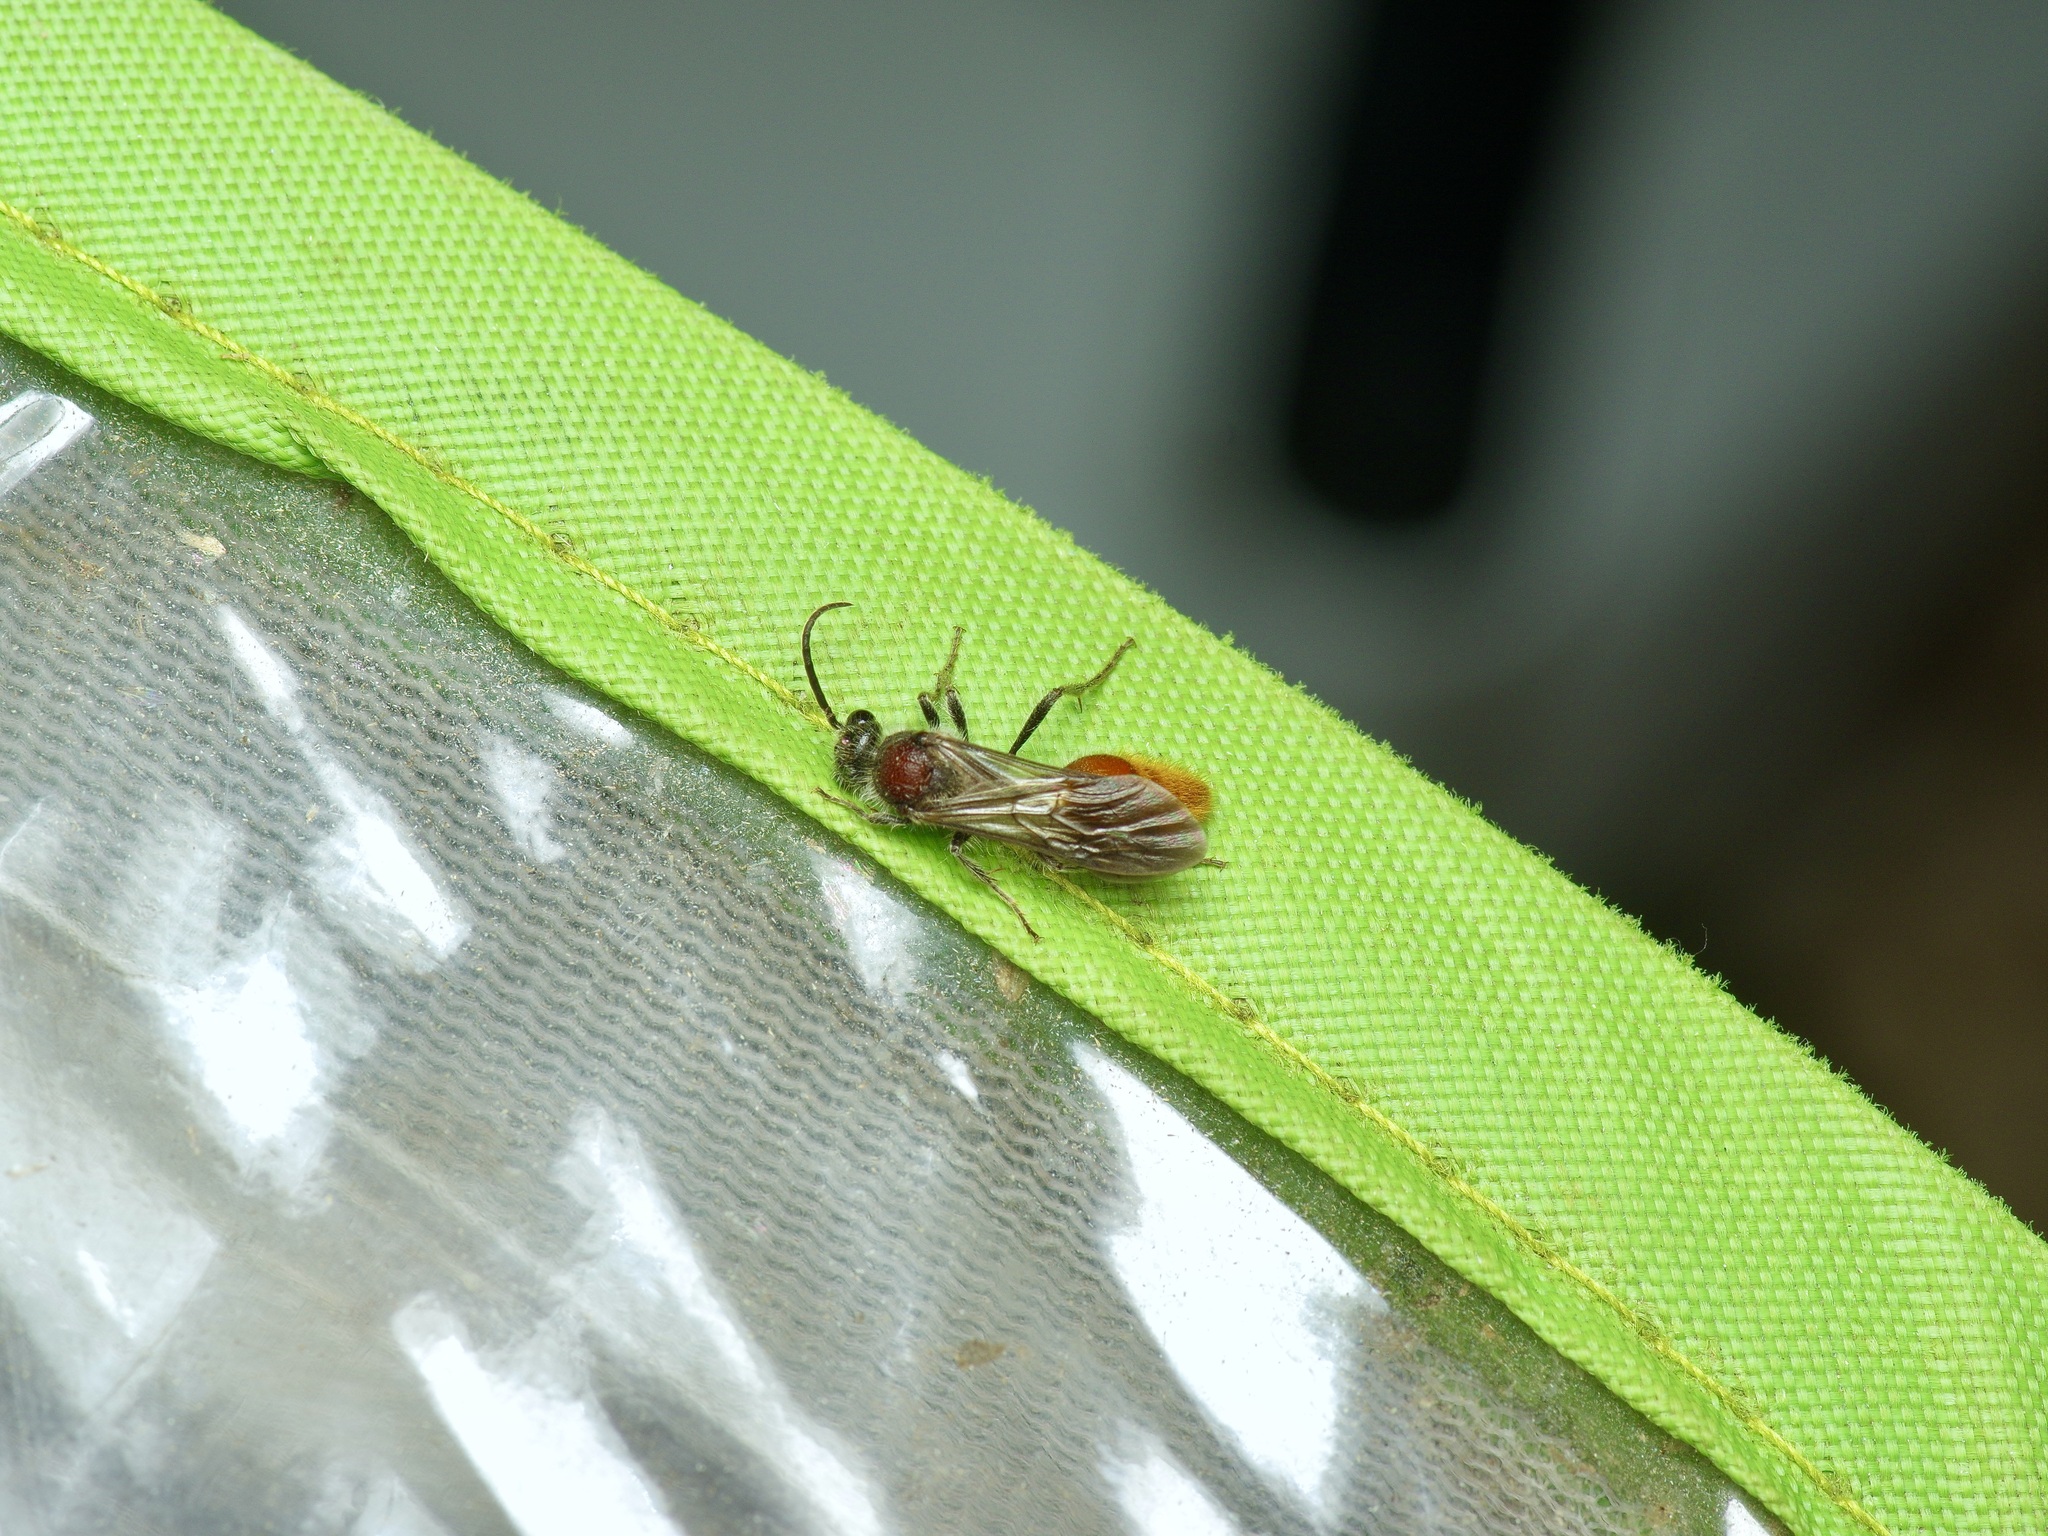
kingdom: Animalia
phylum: Arthropoda
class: Insecta
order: Hymenoptera
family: Mutillidae
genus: Sphaeropthalma
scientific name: Sphaeropthalma imperialis
